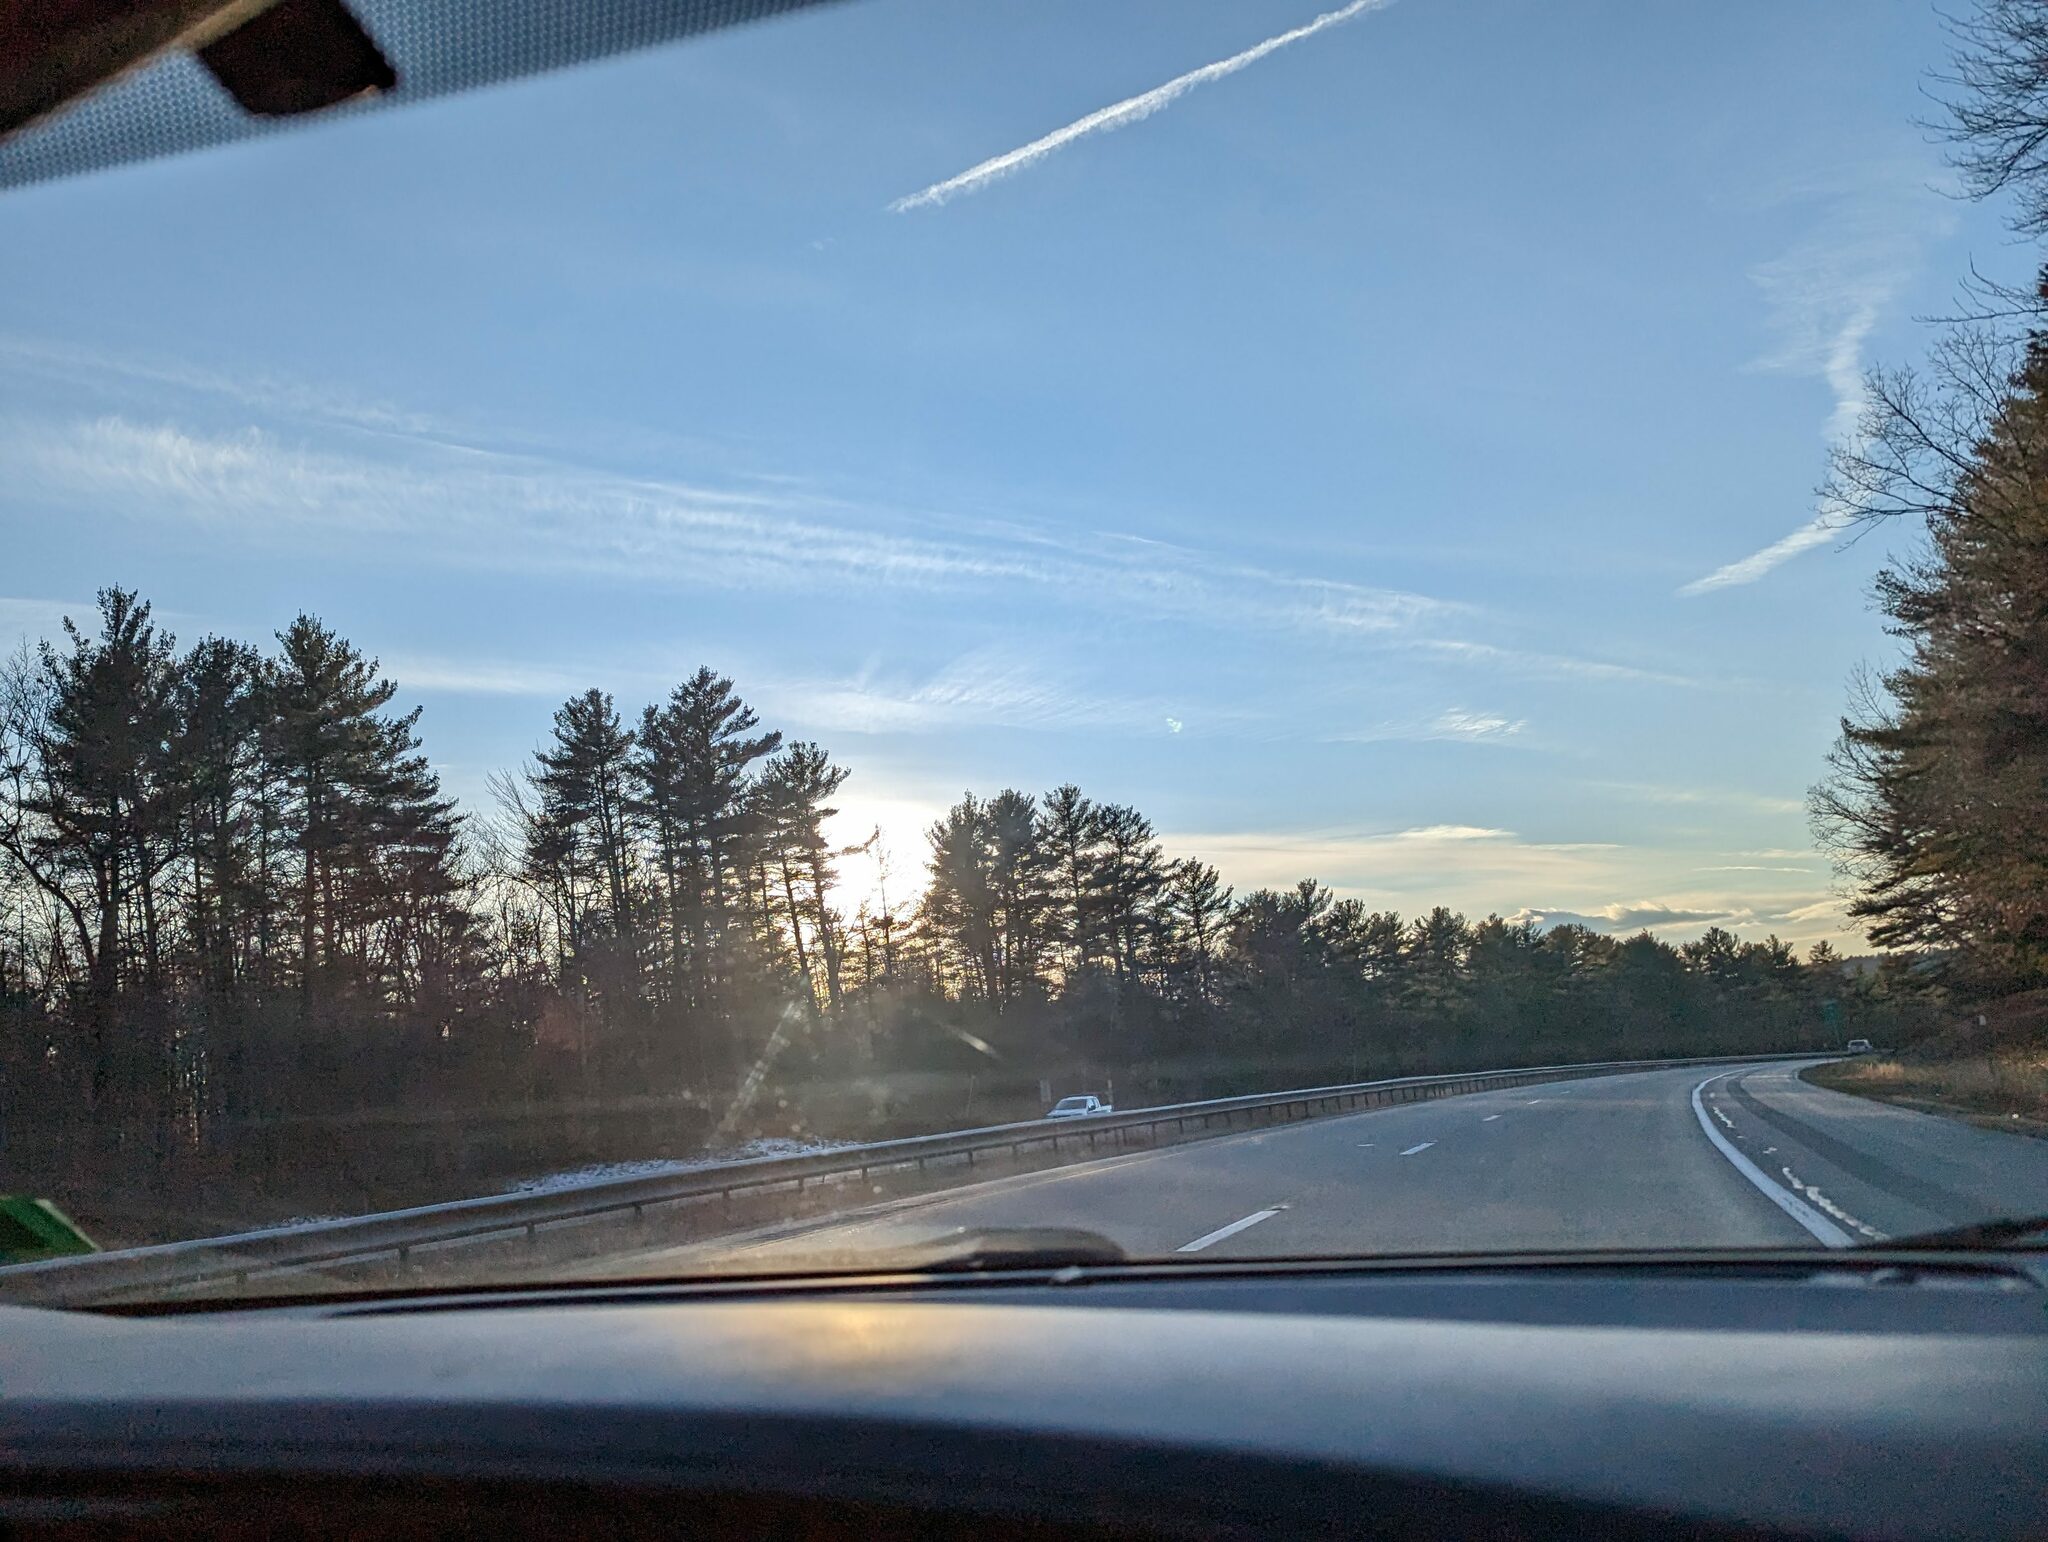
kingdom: Plantae
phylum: Tracheophyta
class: Pinopsida
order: Pinales
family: Pinaceae
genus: Pinus
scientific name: Pinus strobus
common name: Weymouth pine
